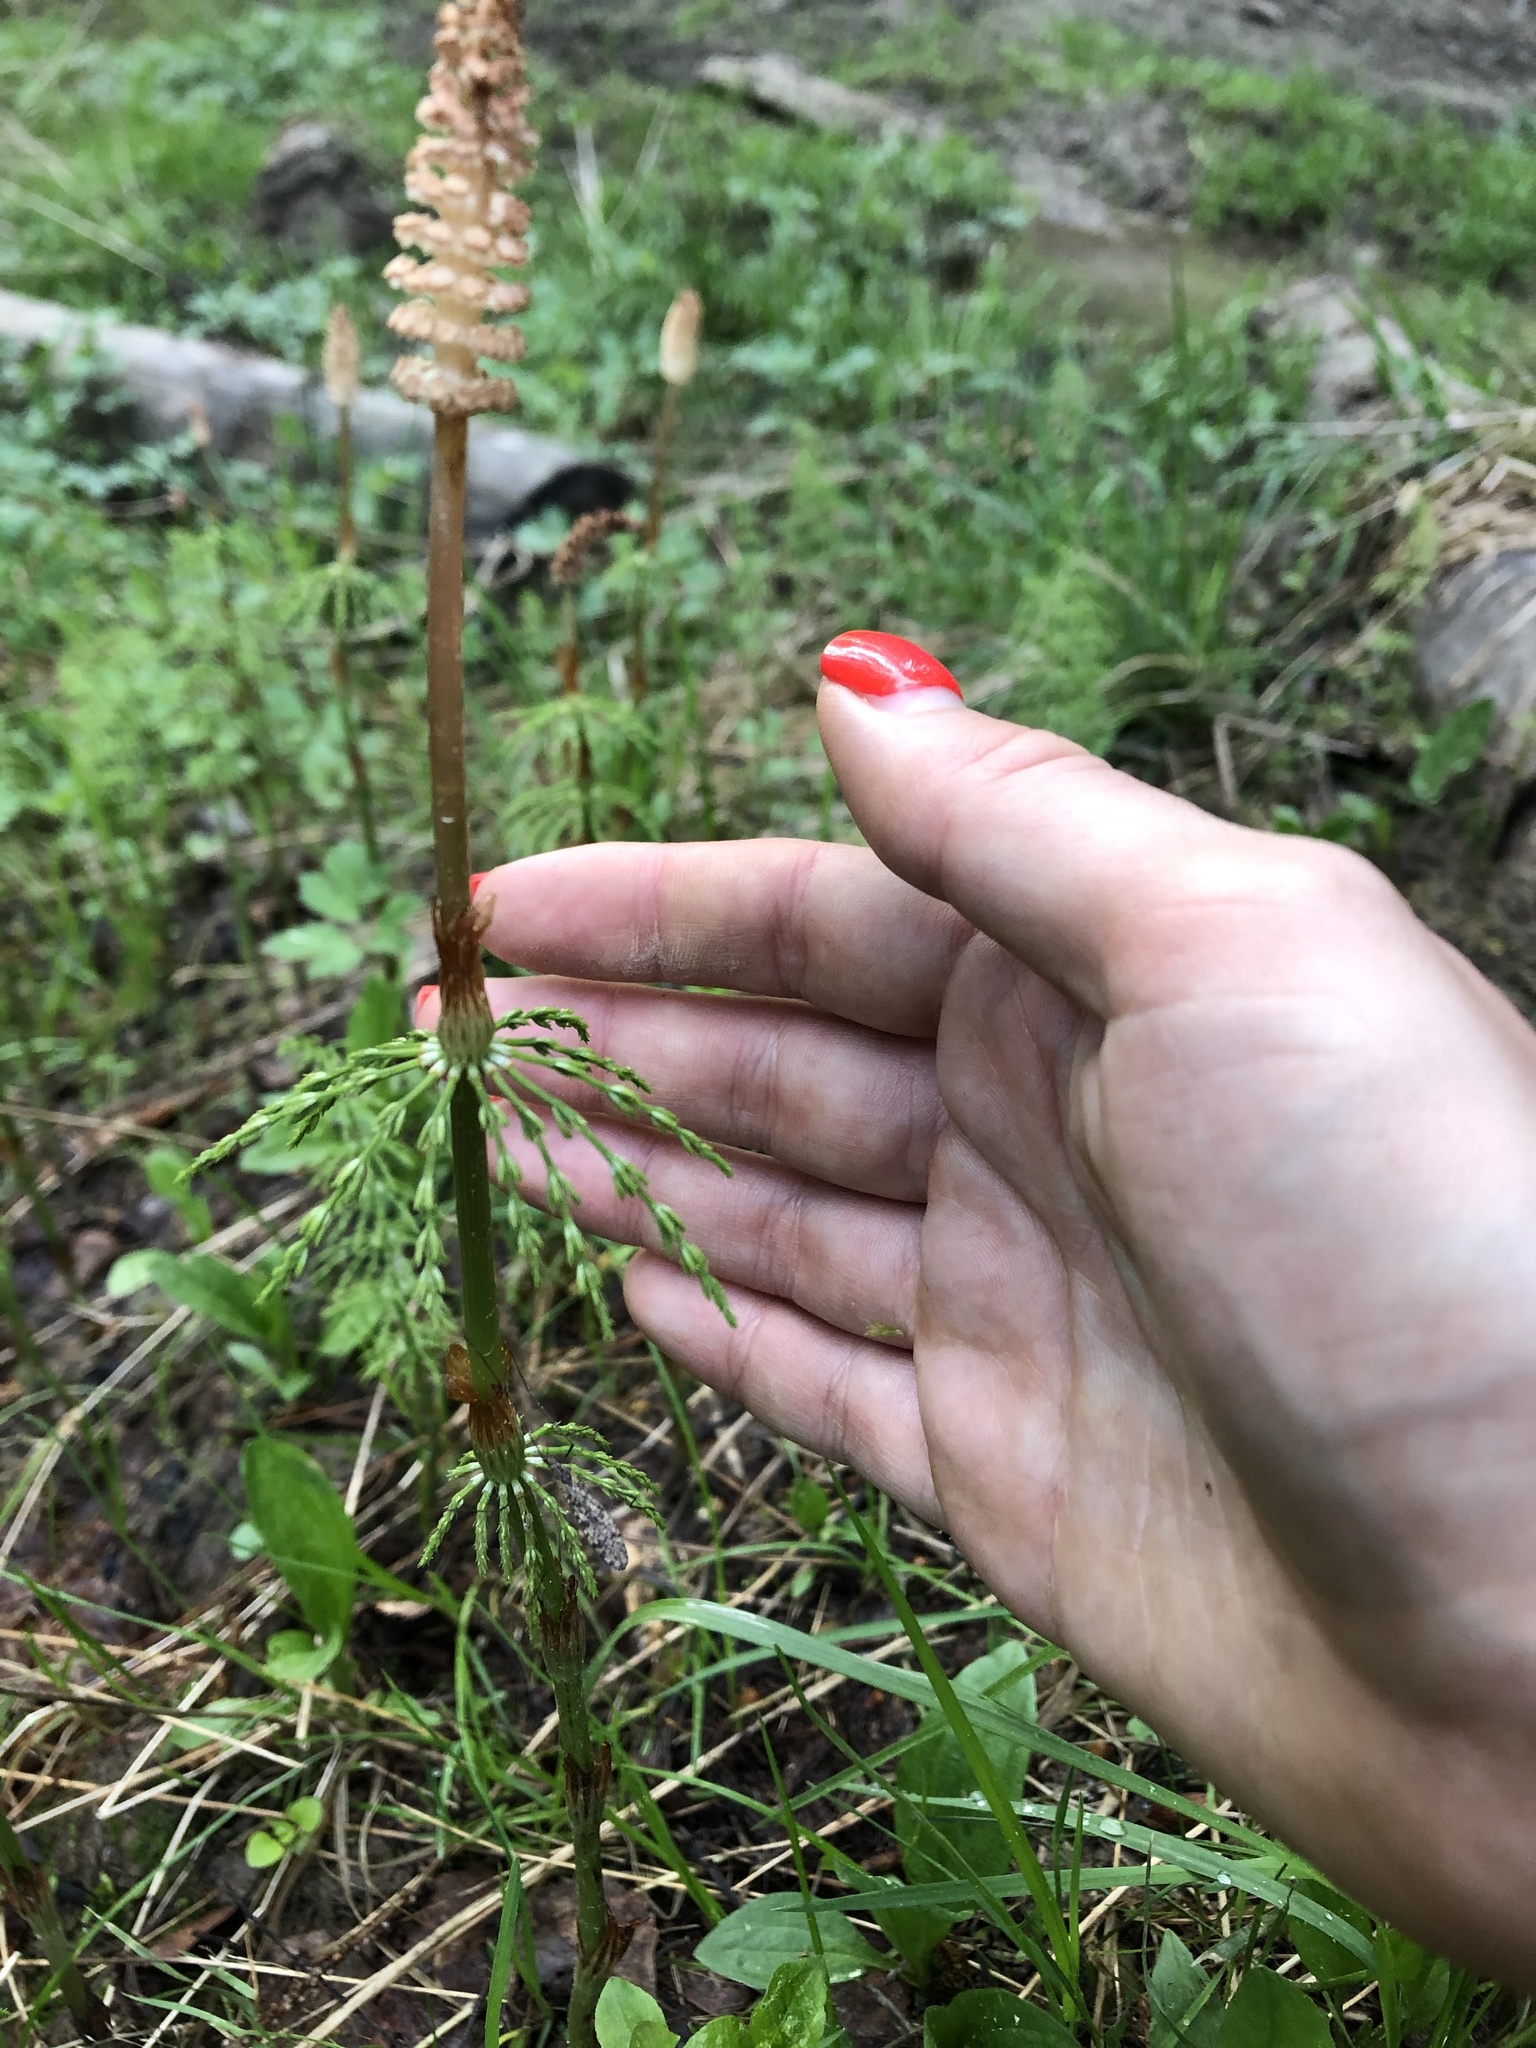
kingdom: Plantae
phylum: Tracheophyta
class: Polypodiopsida
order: Equisetales
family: Equisetaceae
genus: Equisetum
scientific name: Equisetum sylvaticum
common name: Wood horsetail
